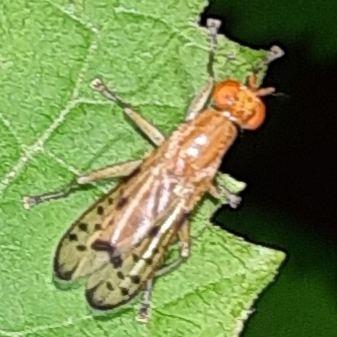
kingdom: Animalia
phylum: Arthropoda
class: Insecta
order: Diptera
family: Sciomyzidae
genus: Tetanocera
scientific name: Tetanocera clara
